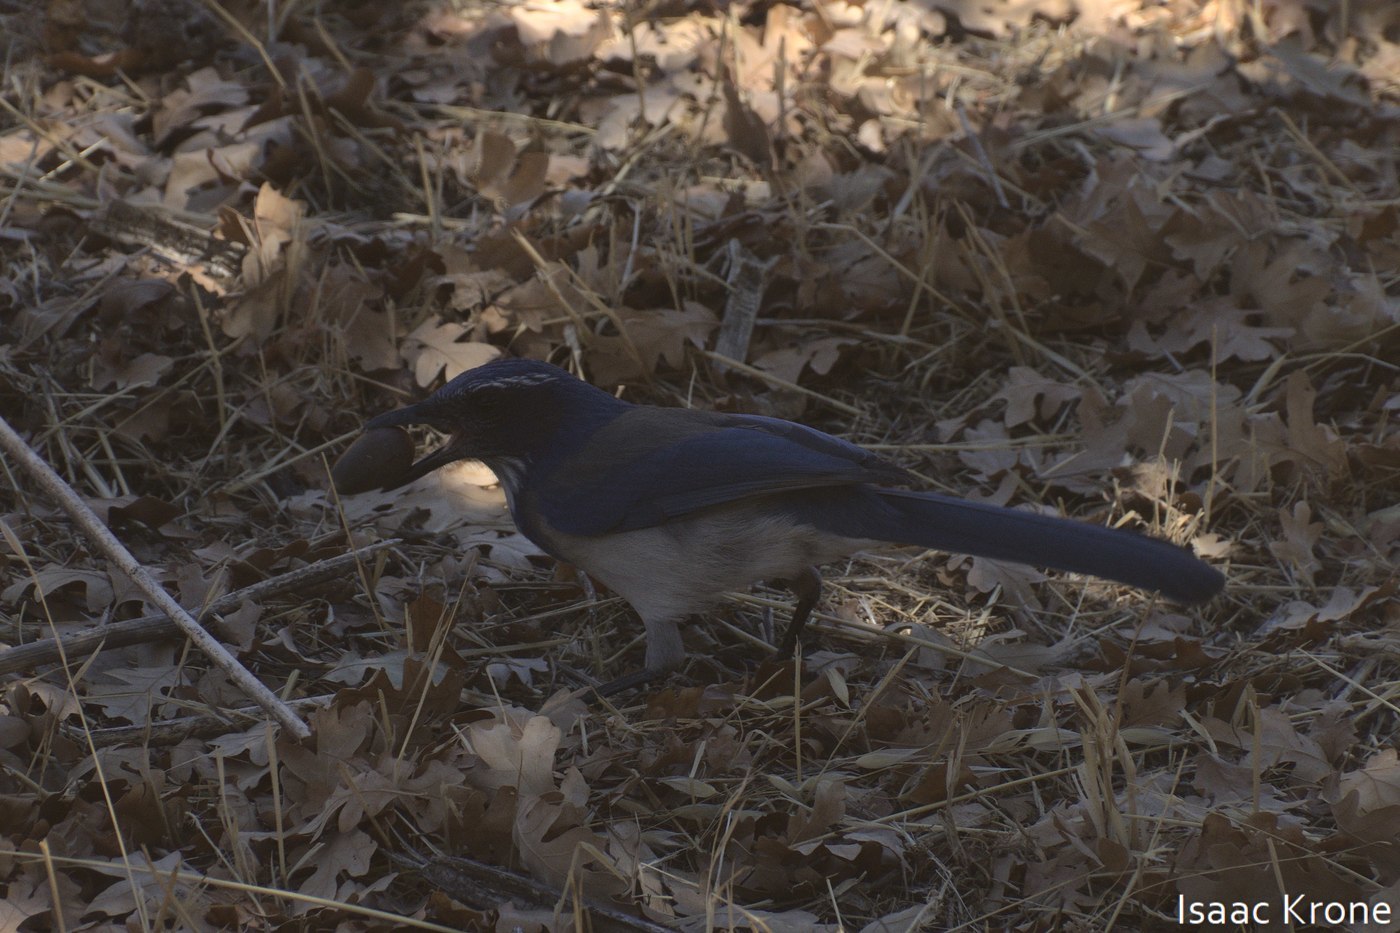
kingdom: Animalia
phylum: Chordata
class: Aves
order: Passeriformes
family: Corvidae
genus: Aphelocoma
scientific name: Aphelocoma californica
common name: California scrub-jay
